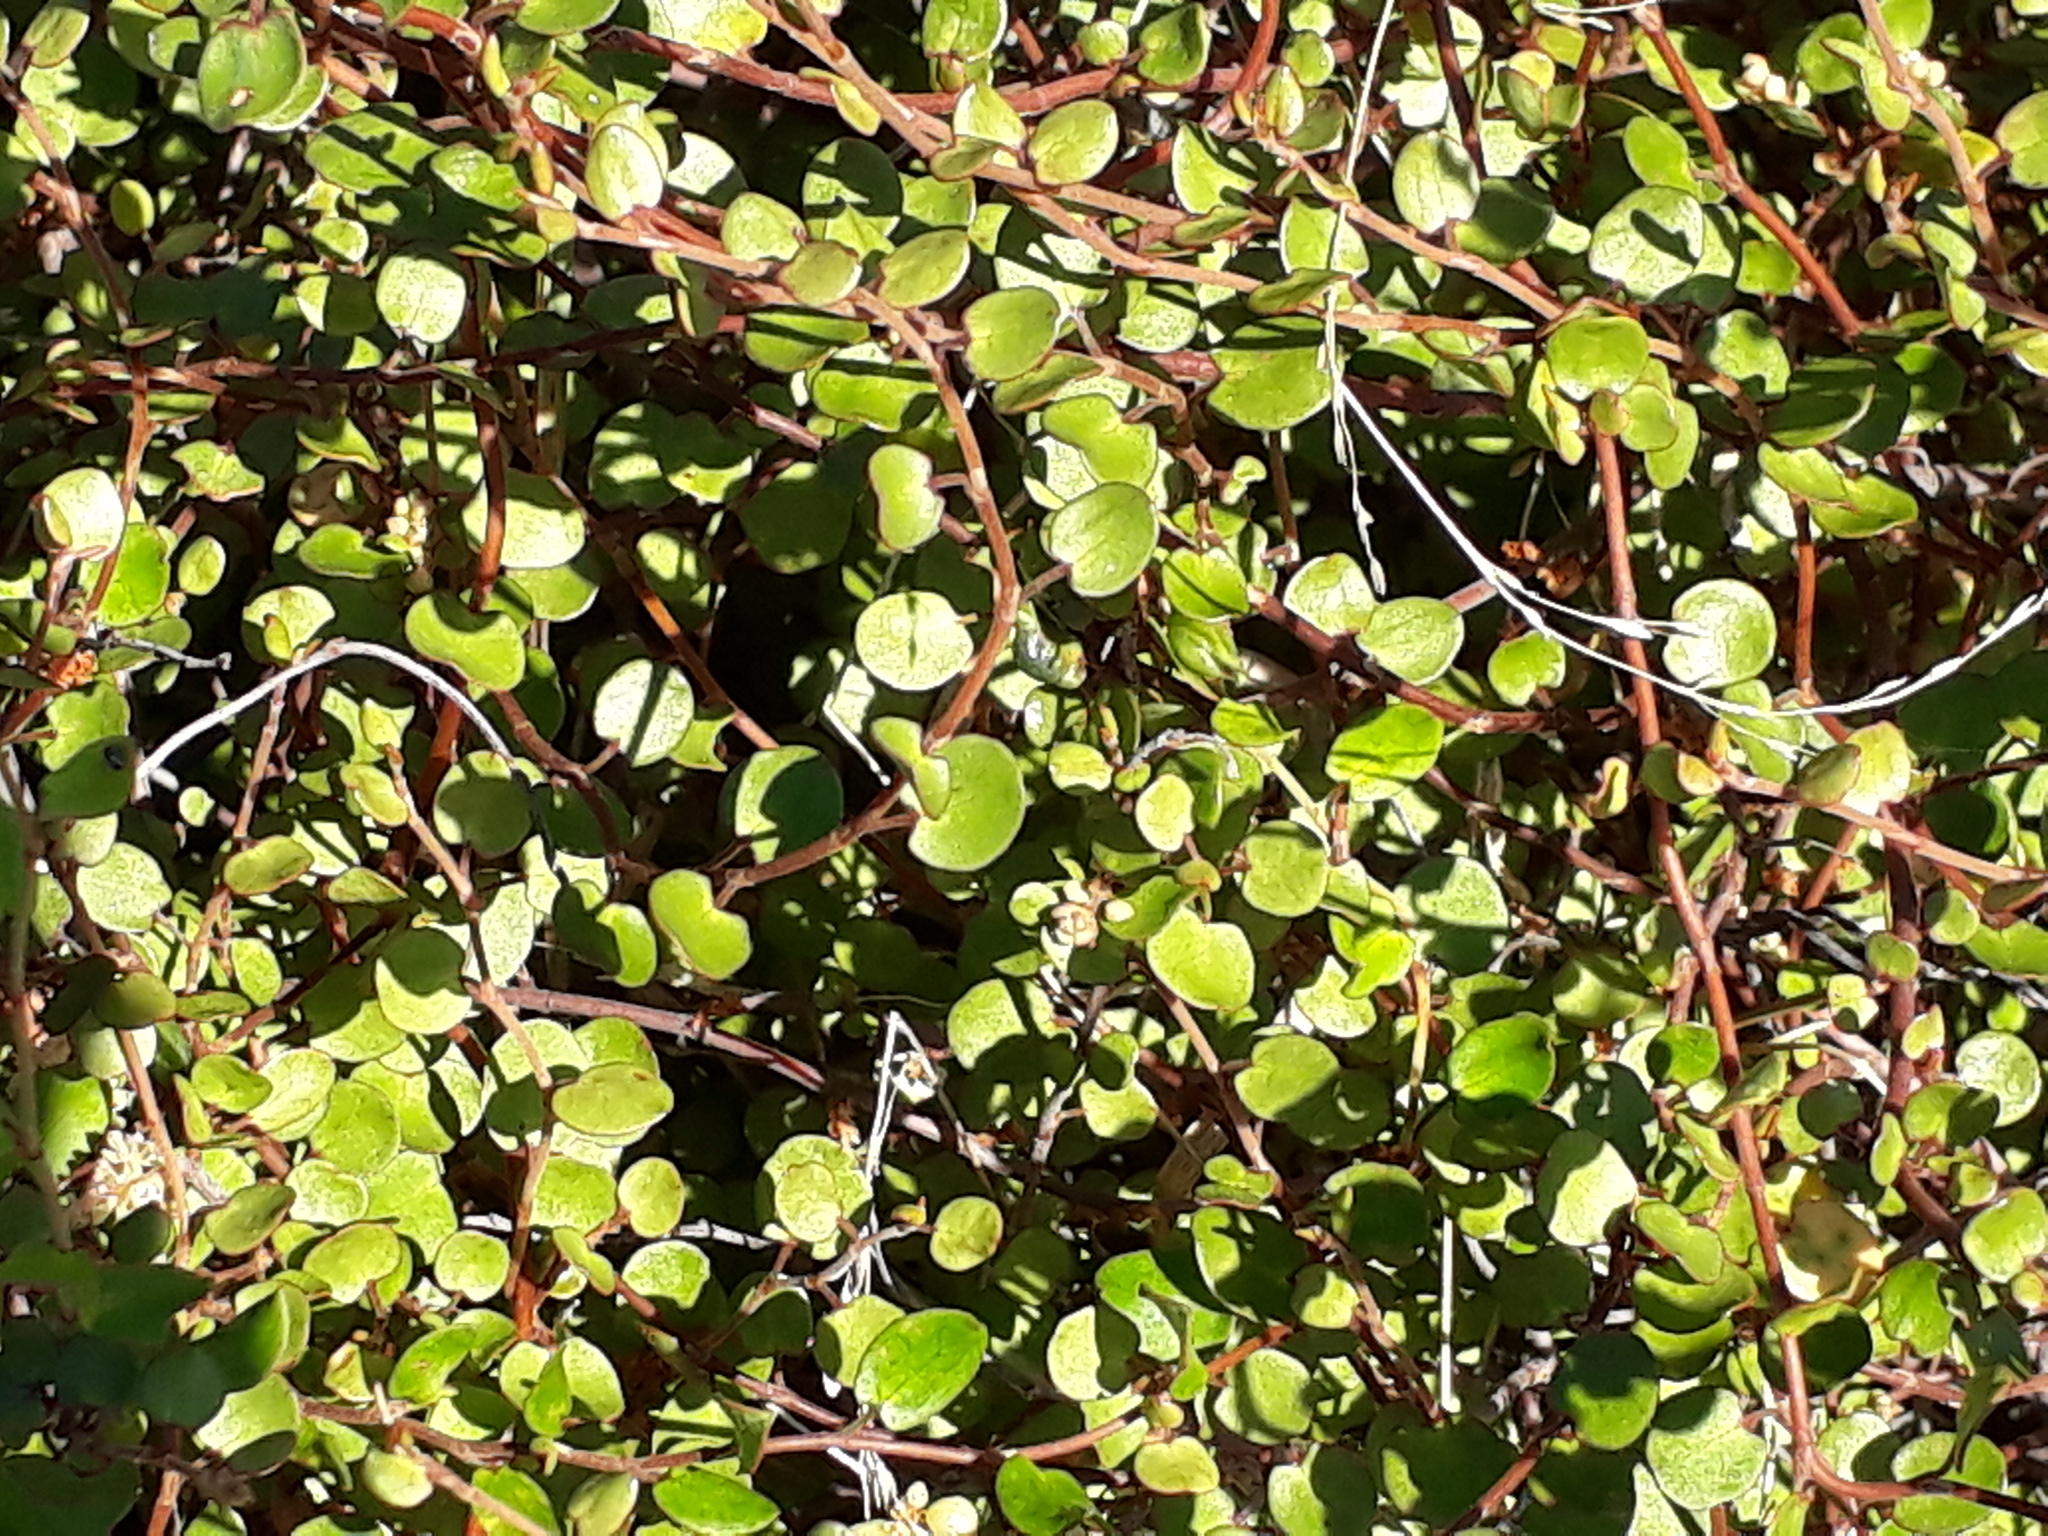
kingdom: Plantae
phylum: Tracheophyta
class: Magnoliopsida
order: Caryophyllales
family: Polygonaceae
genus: Muehlenbeckia
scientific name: Muehlenbeckia complexa
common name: Wireplant
